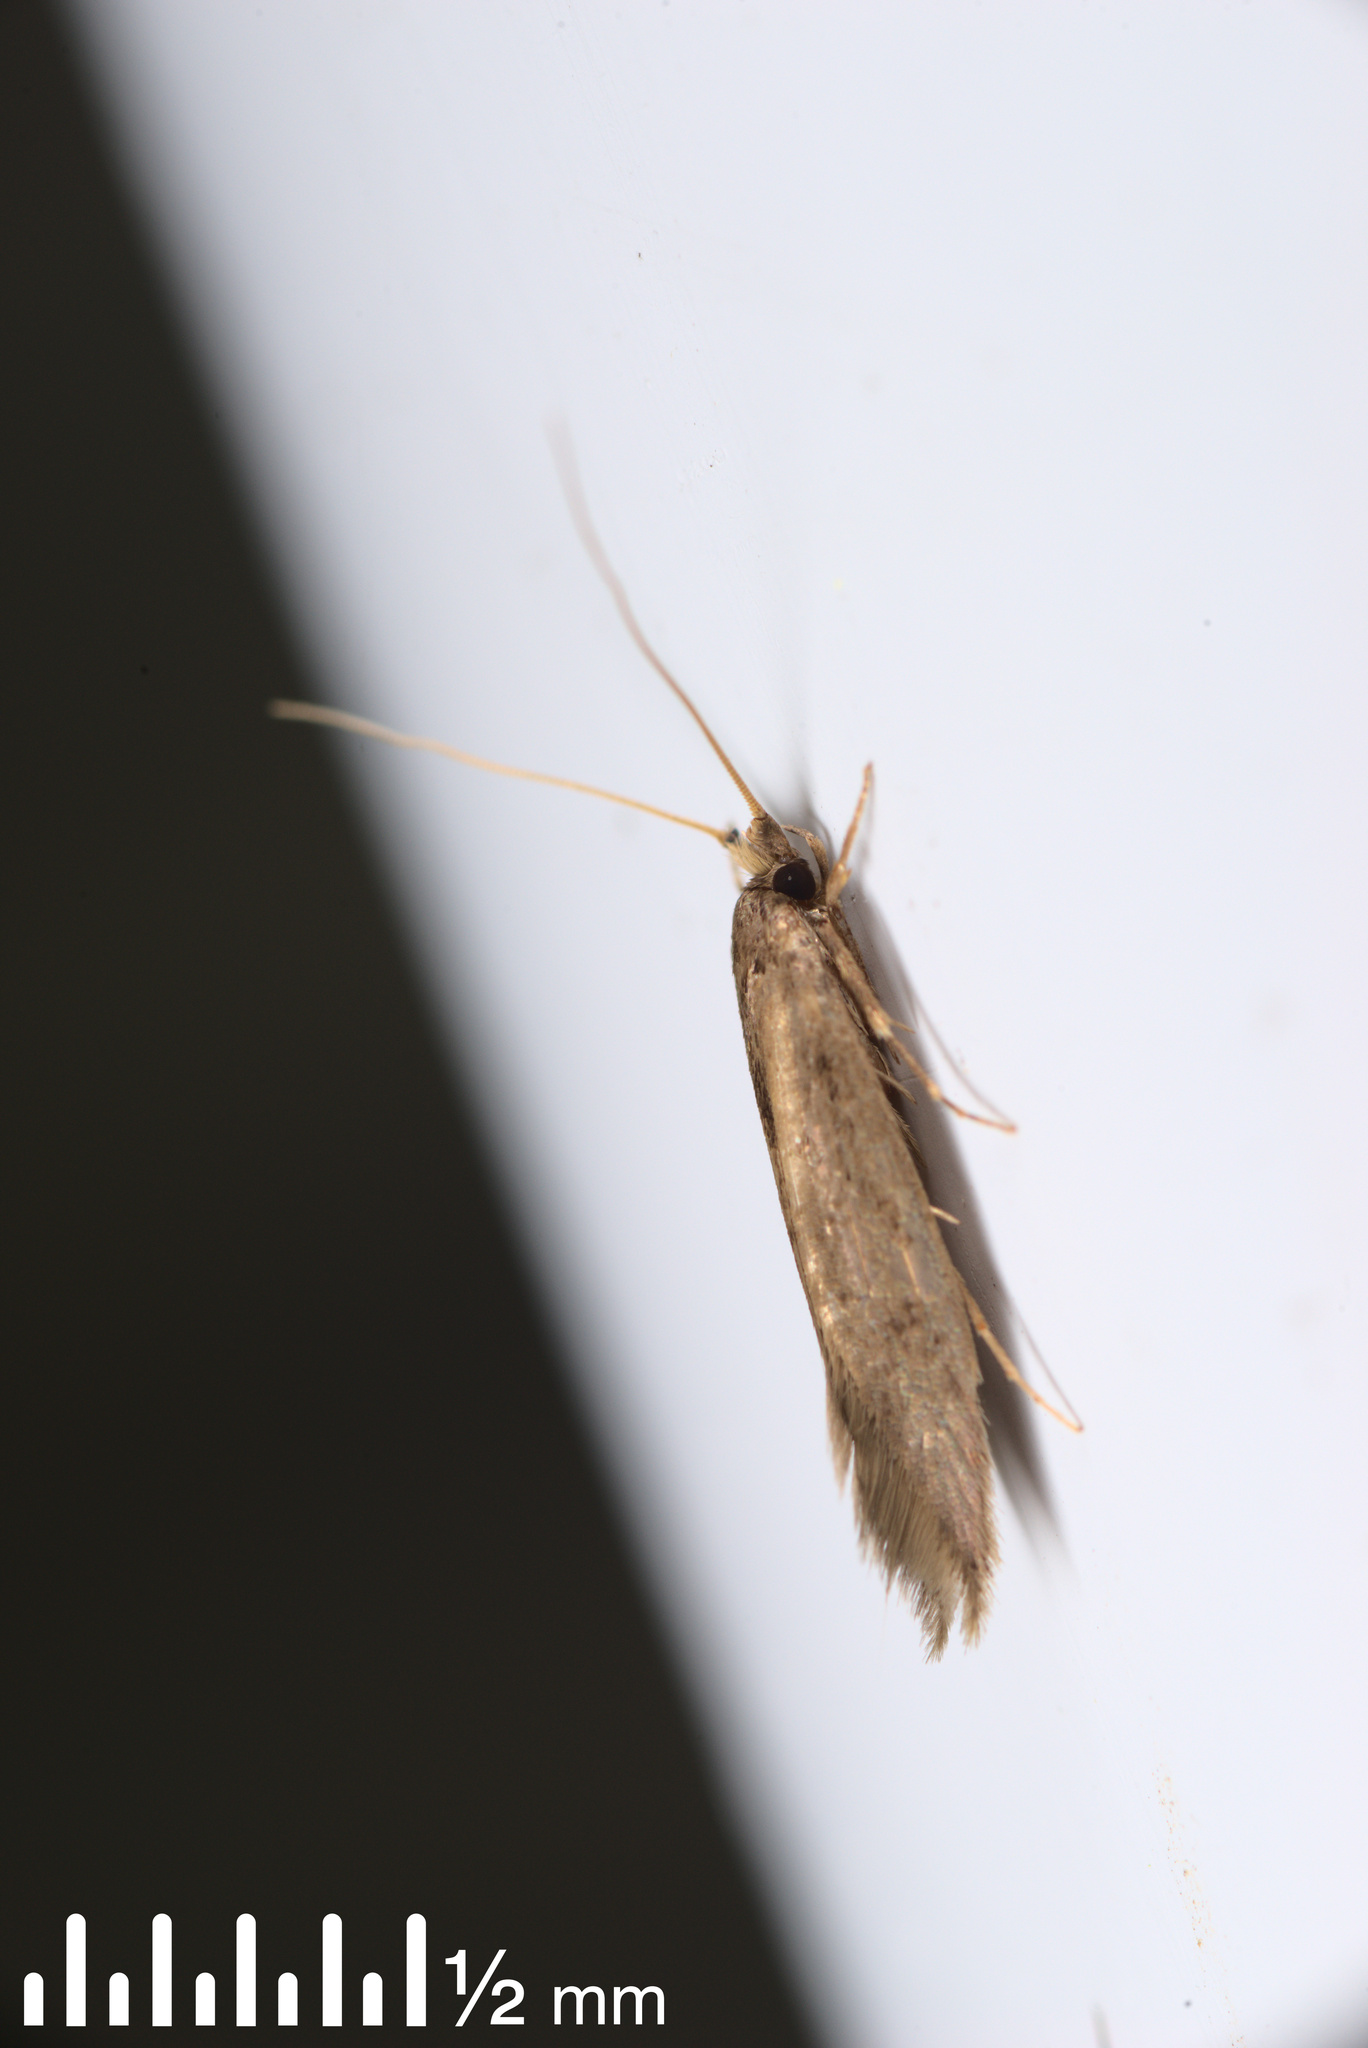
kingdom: Animalia
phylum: Arthropoda
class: Insecta
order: Lepidoptera
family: Tineidae
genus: Opogona
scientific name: Opogona omoscopa
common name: Moth
